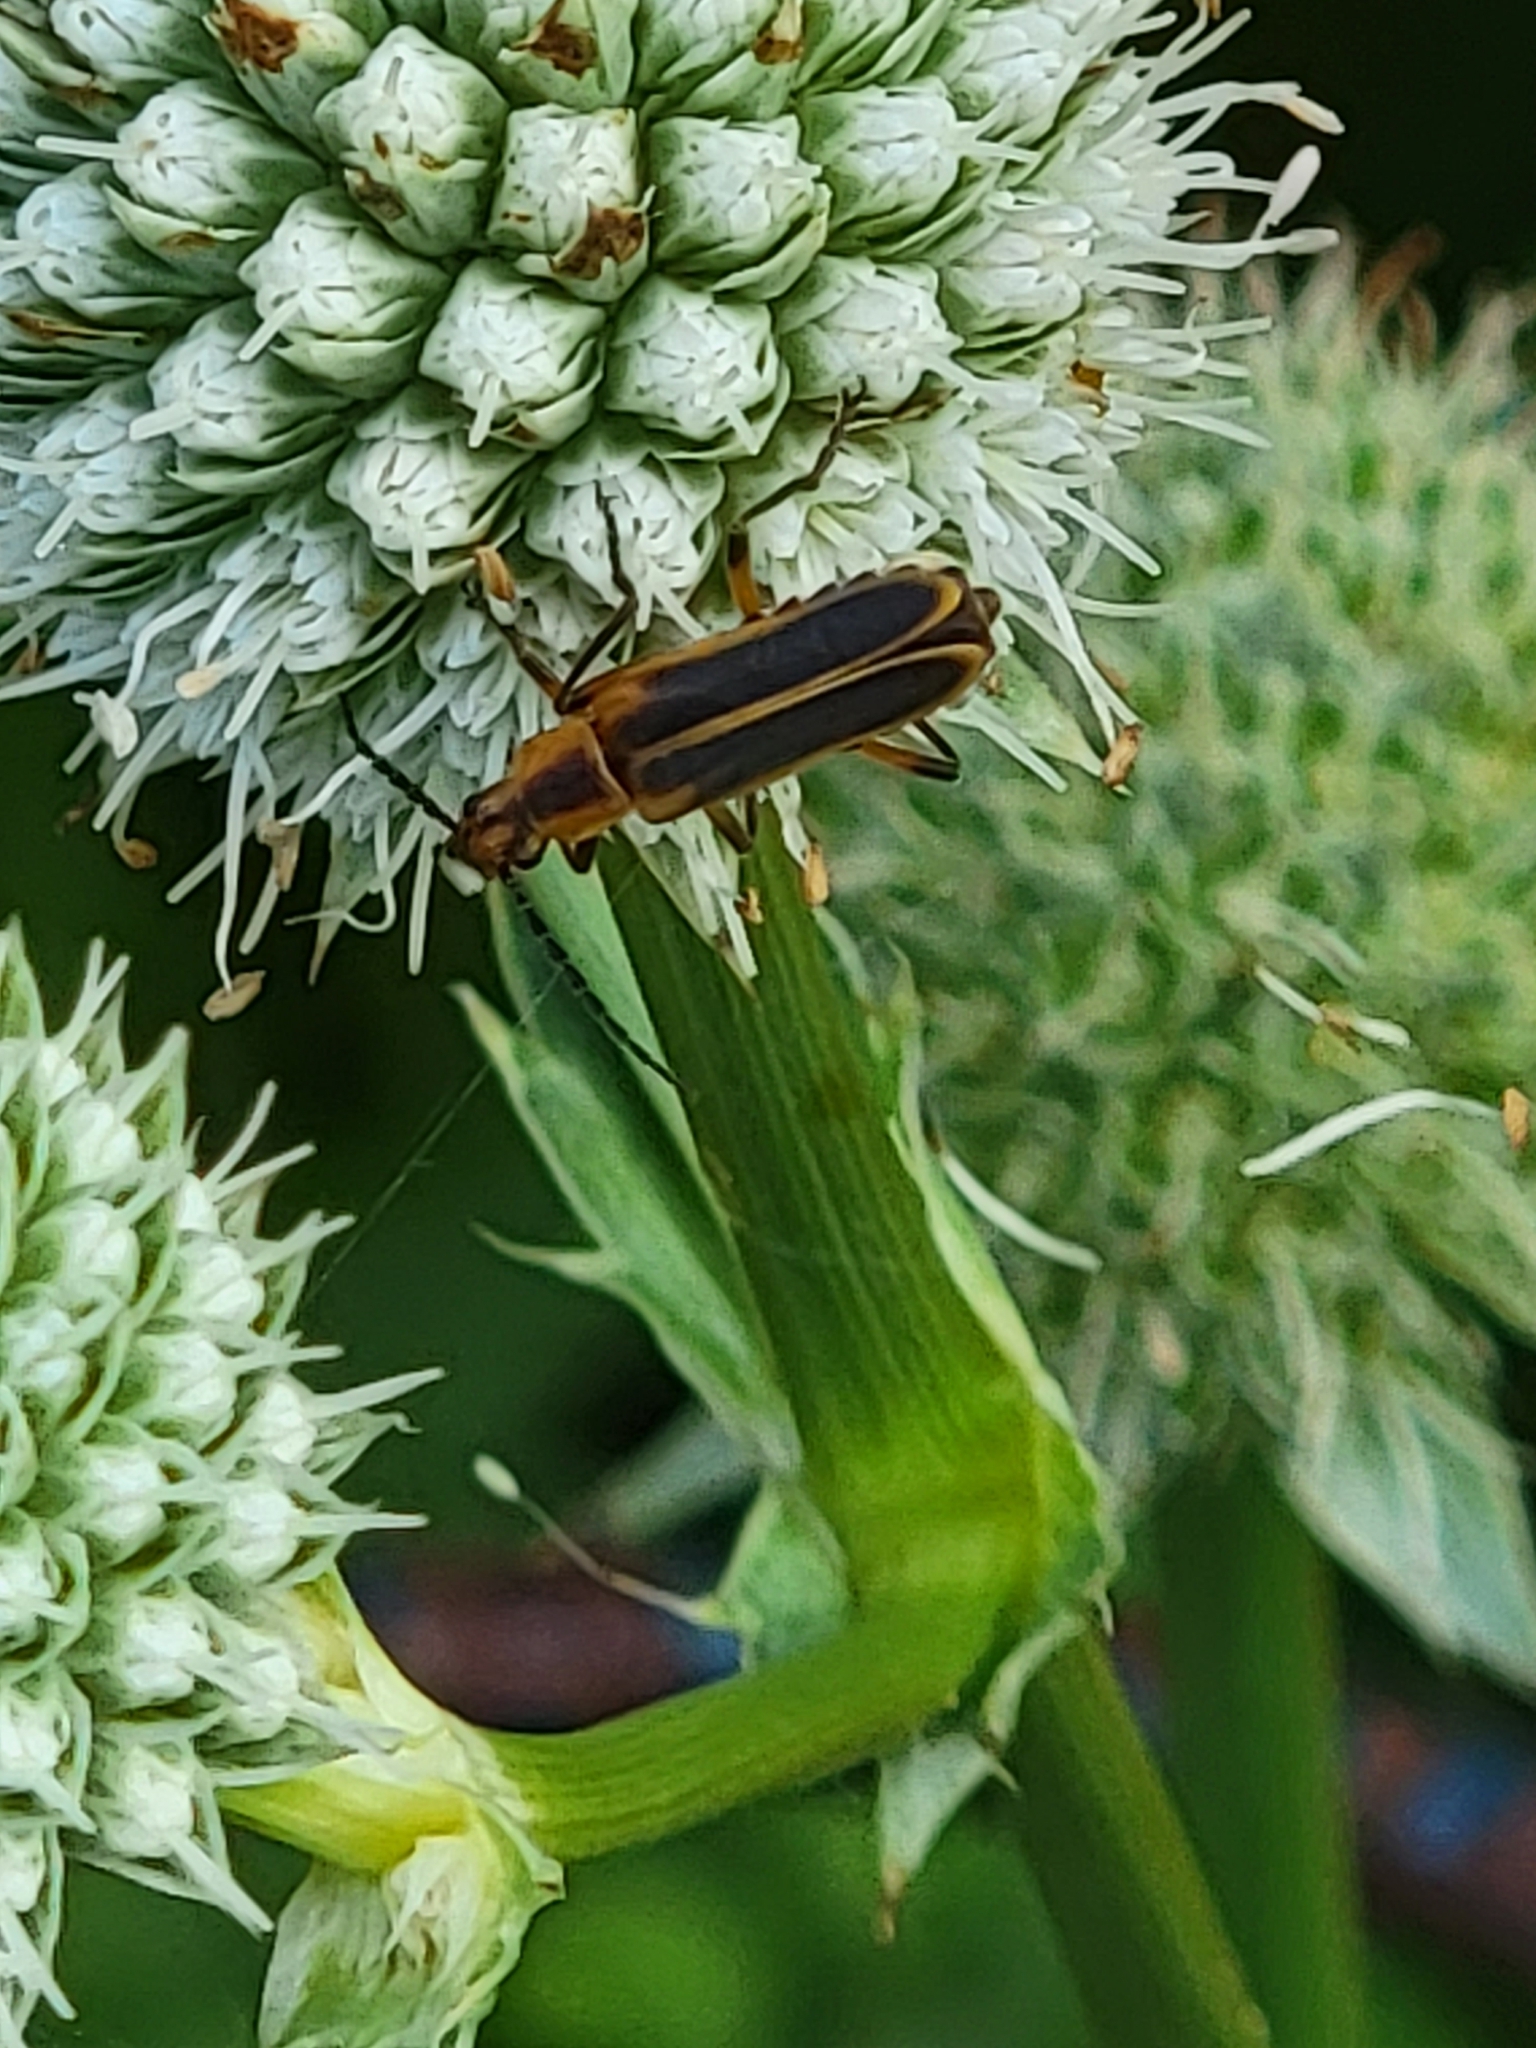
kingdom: Animalia
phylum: Arthropoda
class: Insecta
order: Coleoptera
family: Cantharidae
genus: Chauliognathus
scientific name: Chauliognathus marginatus
